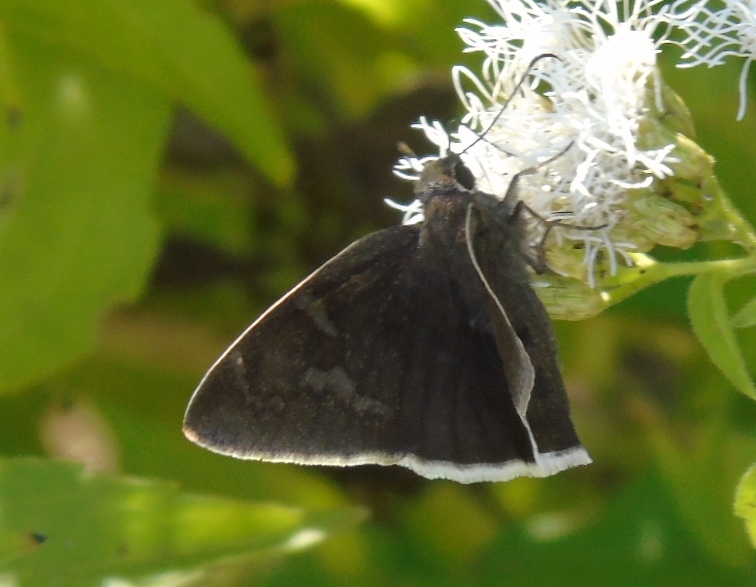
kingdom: Animalia
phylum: Arthropoda
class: Insecta
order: Lepidoptera
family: Hesperiidae
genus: Achalarus
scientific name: Achalarus Murgaria albociliatus
